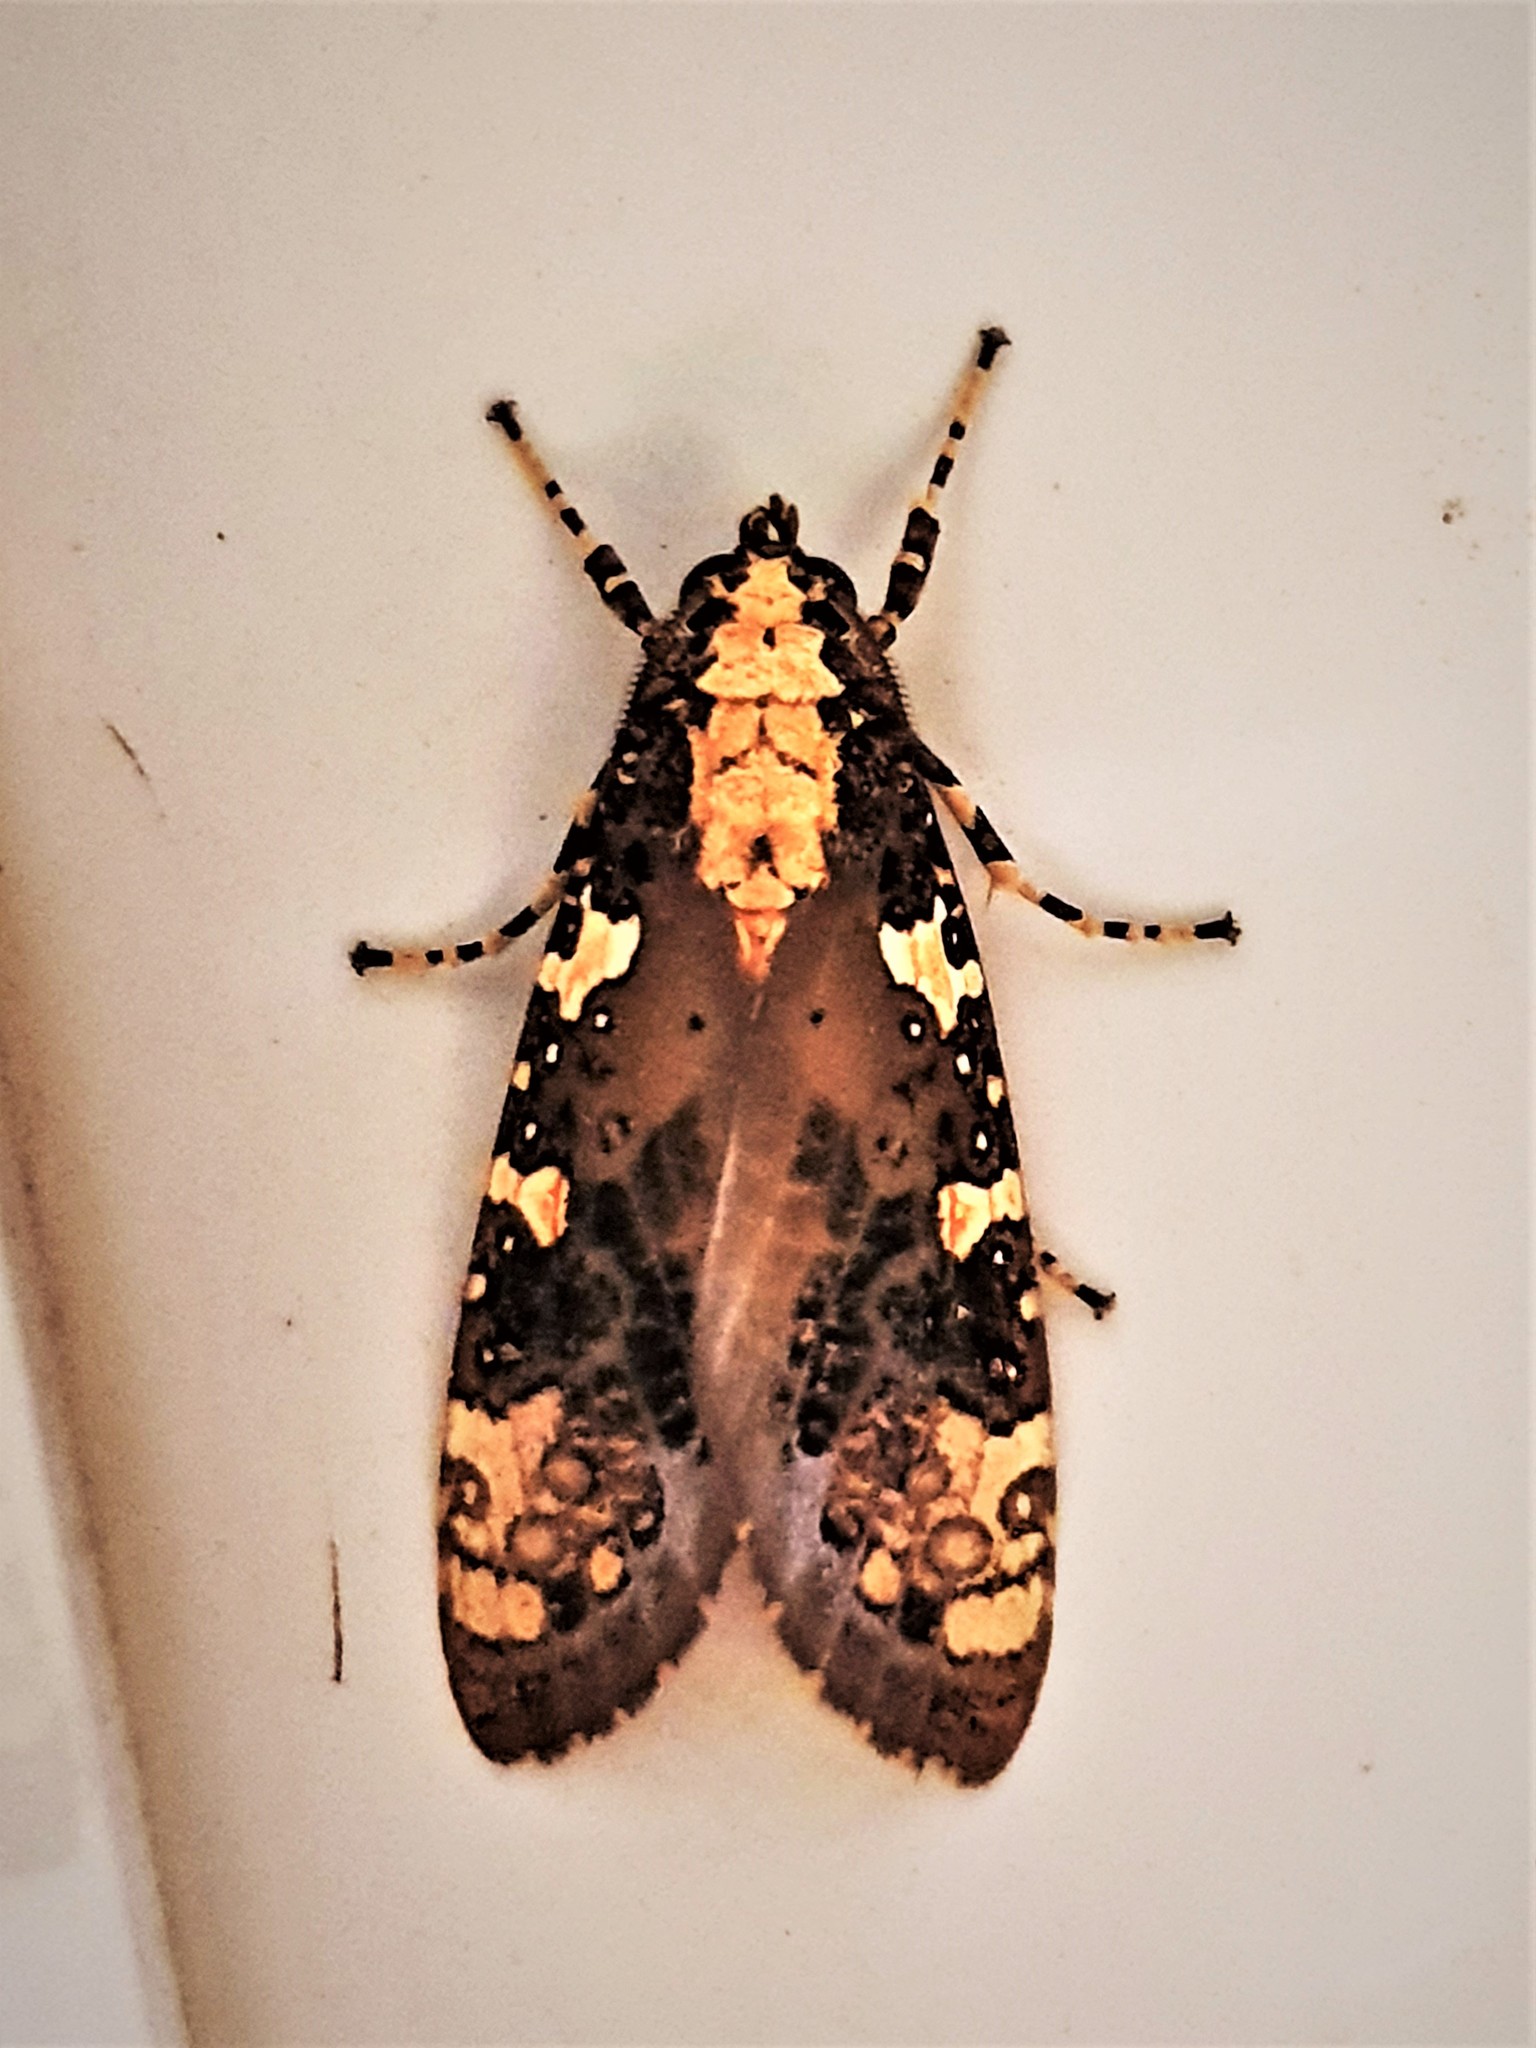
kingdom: Animalia
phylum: Arthropoda
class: Insecta
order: Lepidoptera
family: Erebidae
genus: Cresera
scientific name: Cresera ilus
